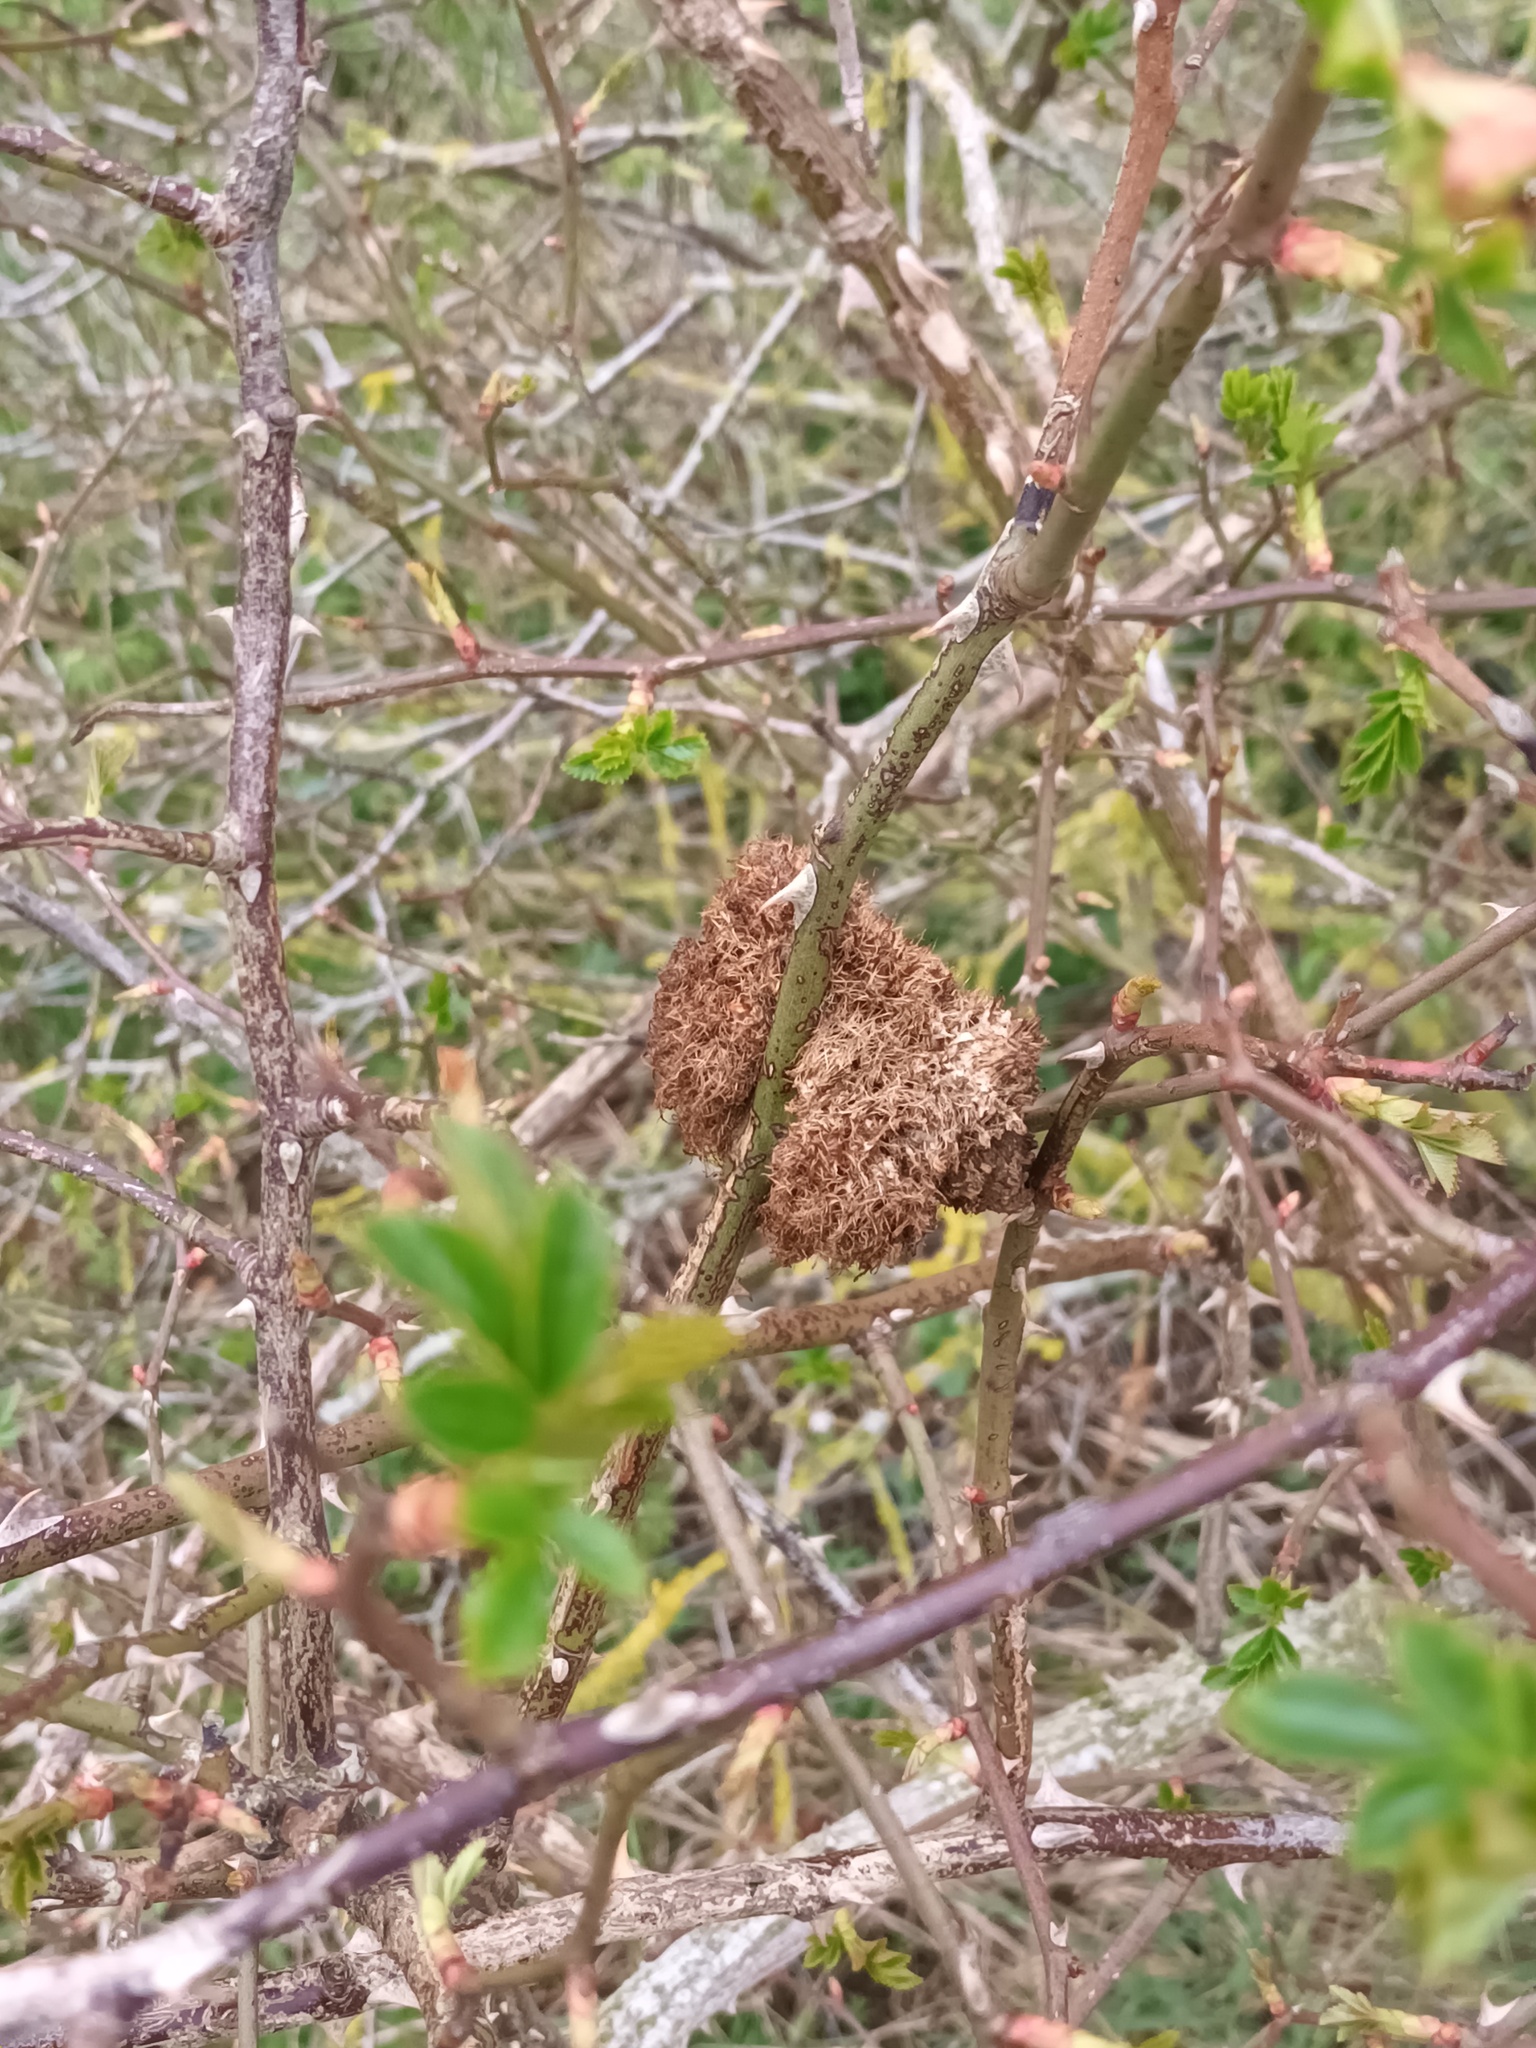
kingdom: Animalia
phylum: Arthropoda
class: Insecta
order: Hymenoptera
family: Cynipidae
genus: Diplolepis
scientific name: Diplolepis rosae
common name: Bedeguar gall
